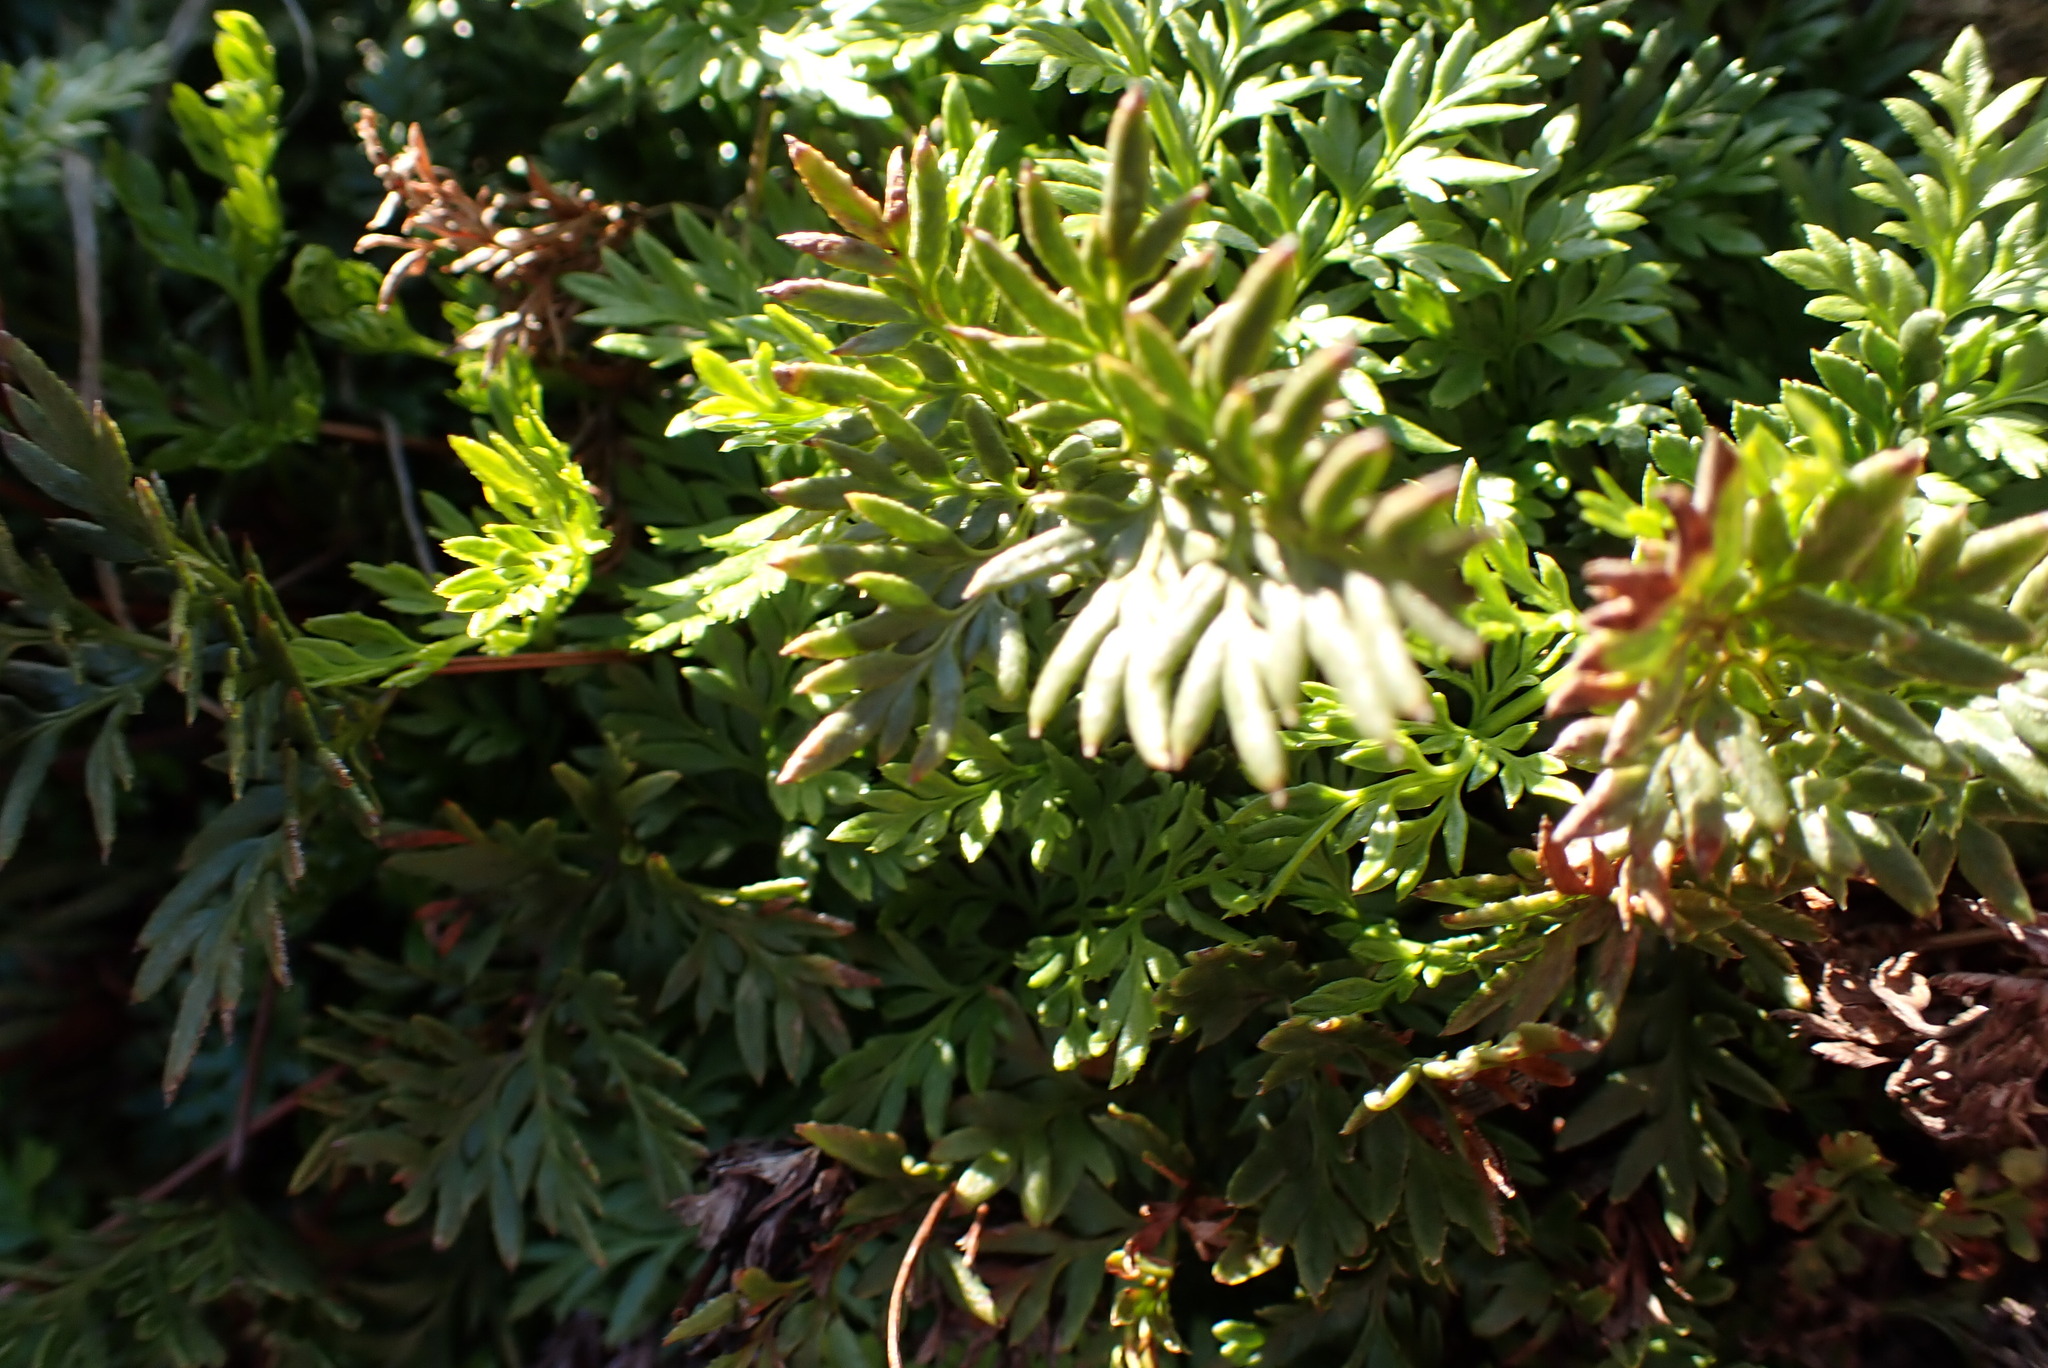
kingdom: Plantae
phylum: Tracheophyta
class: Polypodiopsida
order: Polypodiales
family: Pteridaceae
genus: Aspidotis
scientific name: Aspidotis densa
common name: Indian's dream
